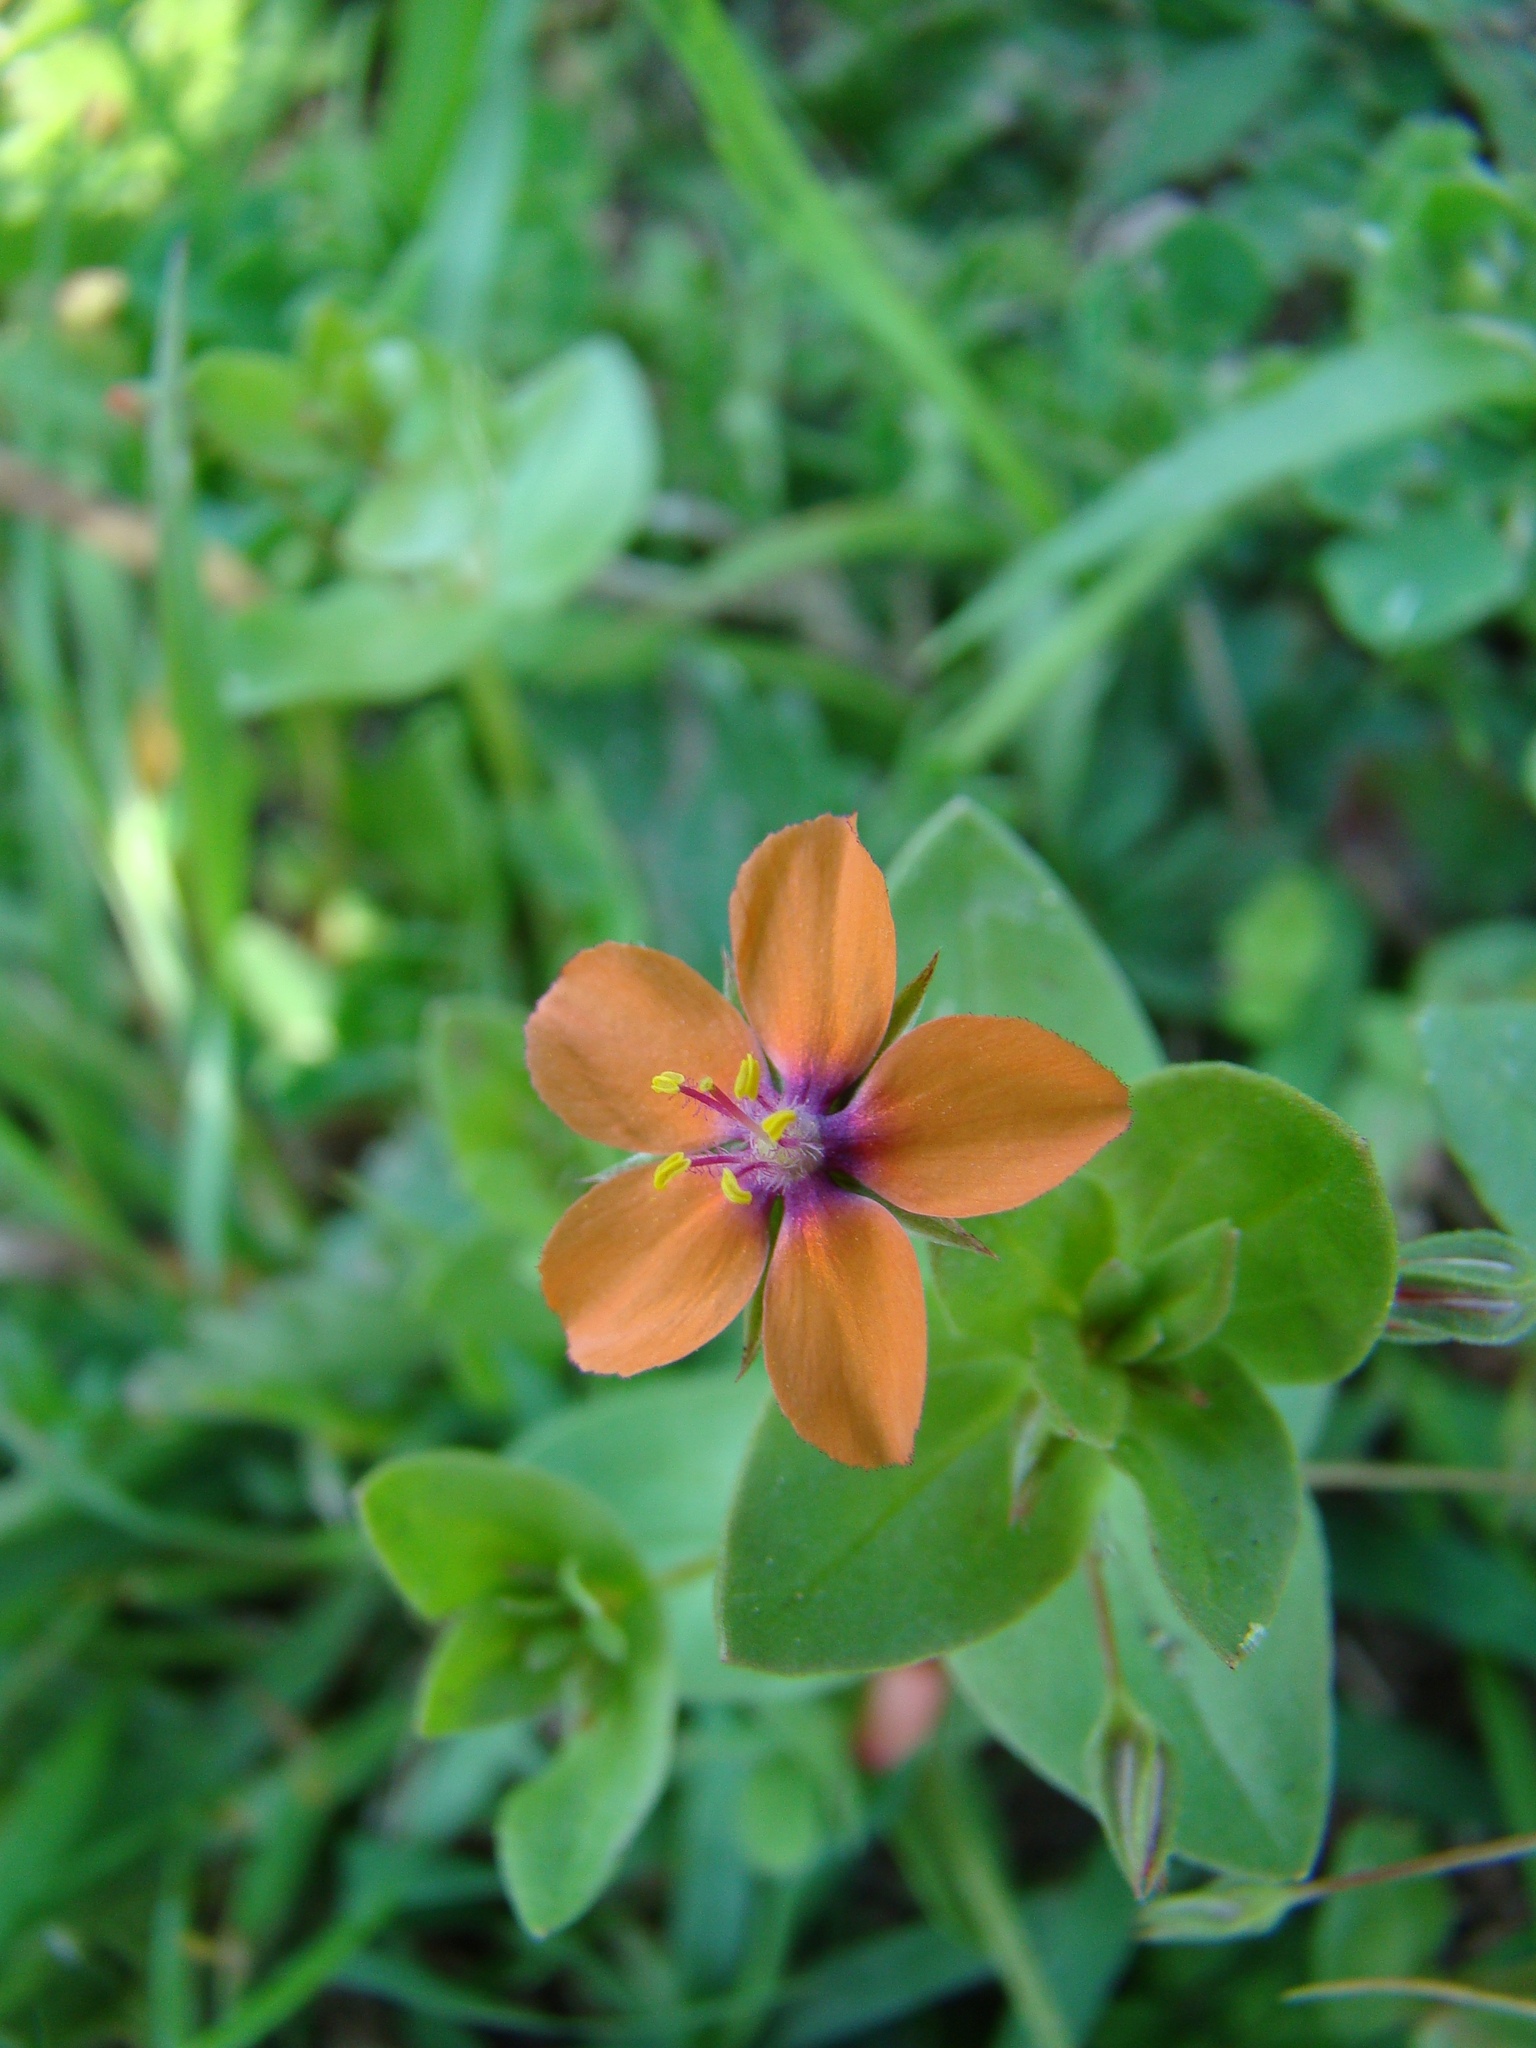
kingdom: Plantae
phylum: Tracheophyta
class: Magnoliopsida
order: Ericales
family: Primulaceae
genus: Lysimachia
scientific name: Lysimachia arvensis
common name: Scarlet pimpernel
